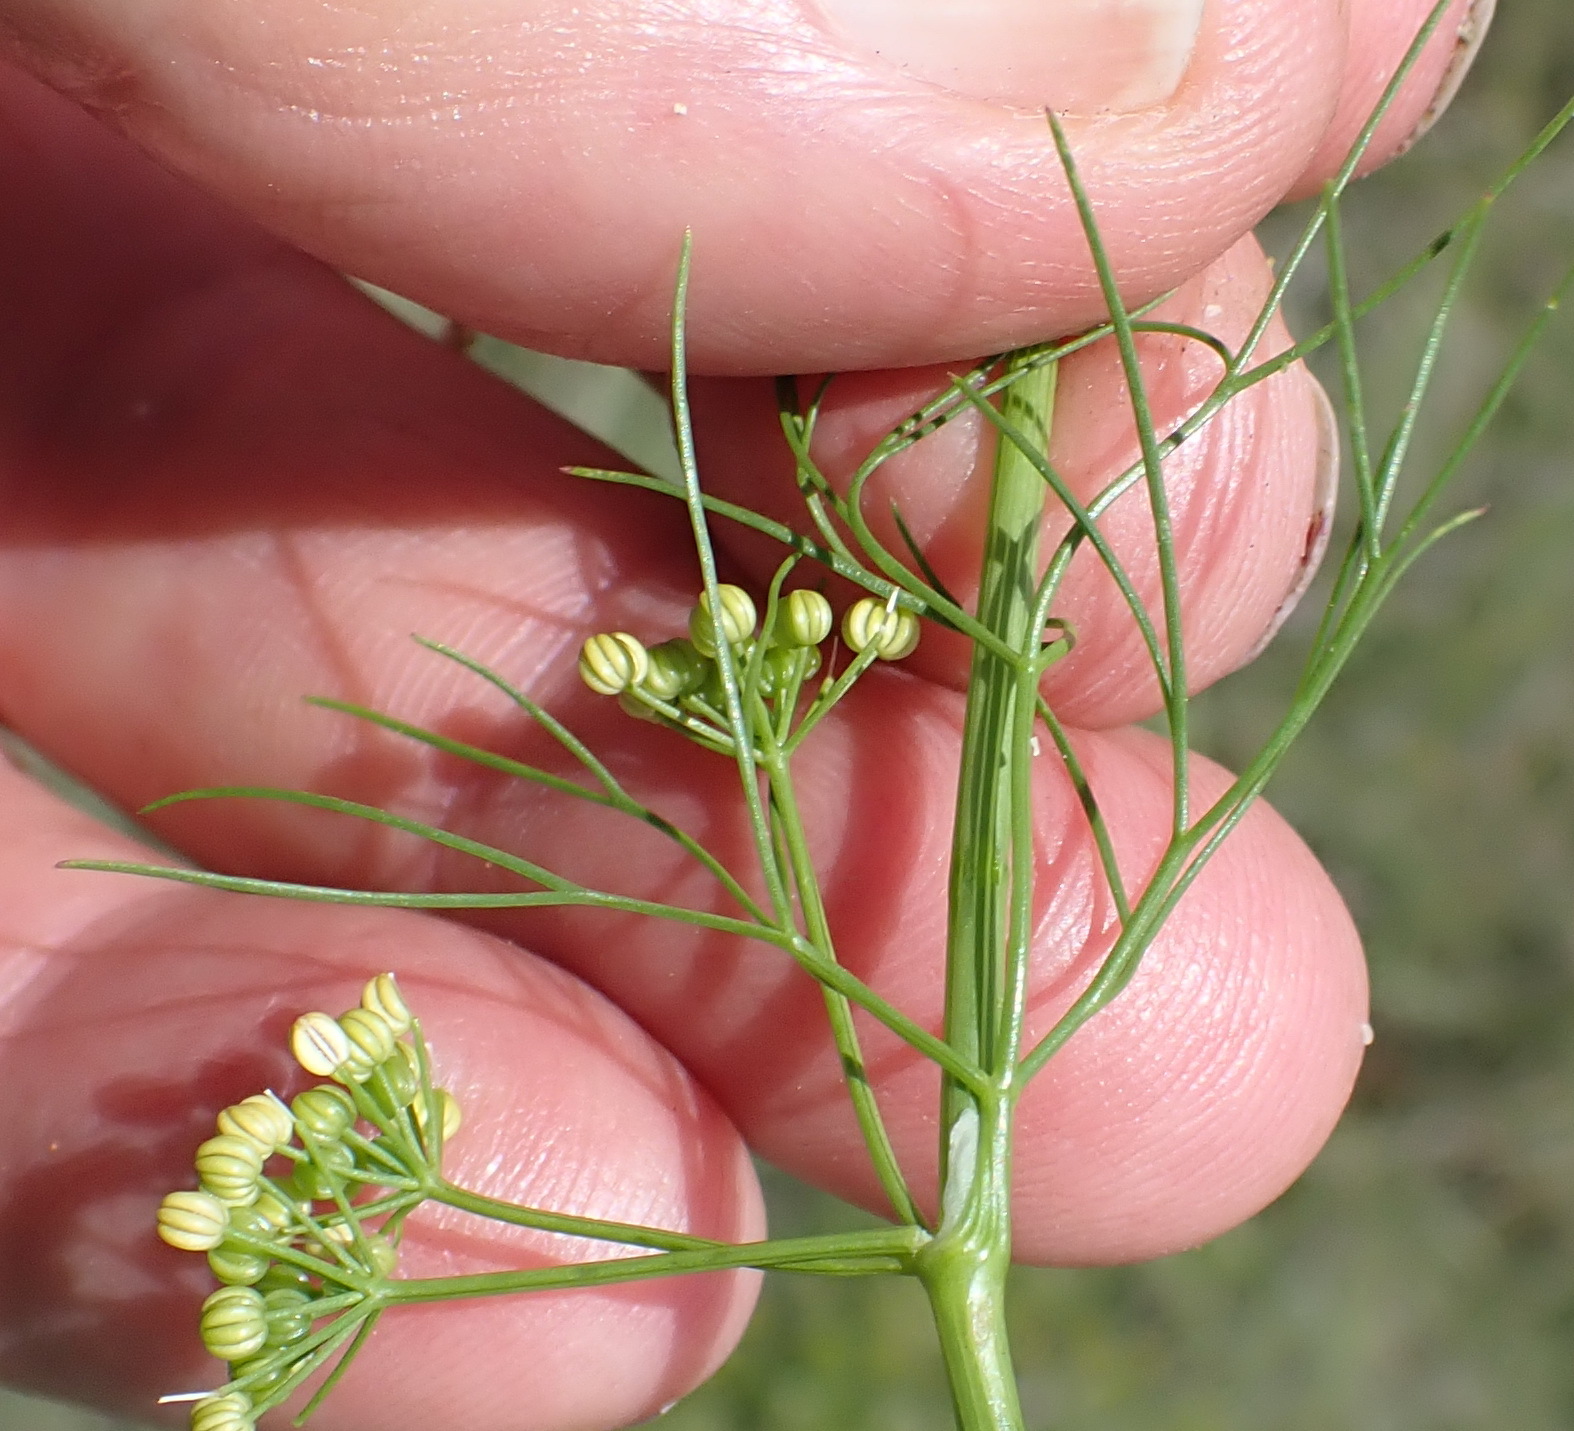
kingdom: Plantae
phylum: Tracheophyta
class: Magnoliopsida
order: Apiales
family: Apiaceae
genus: Cyclospermum
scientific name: Cyclospermum leptophyllum
